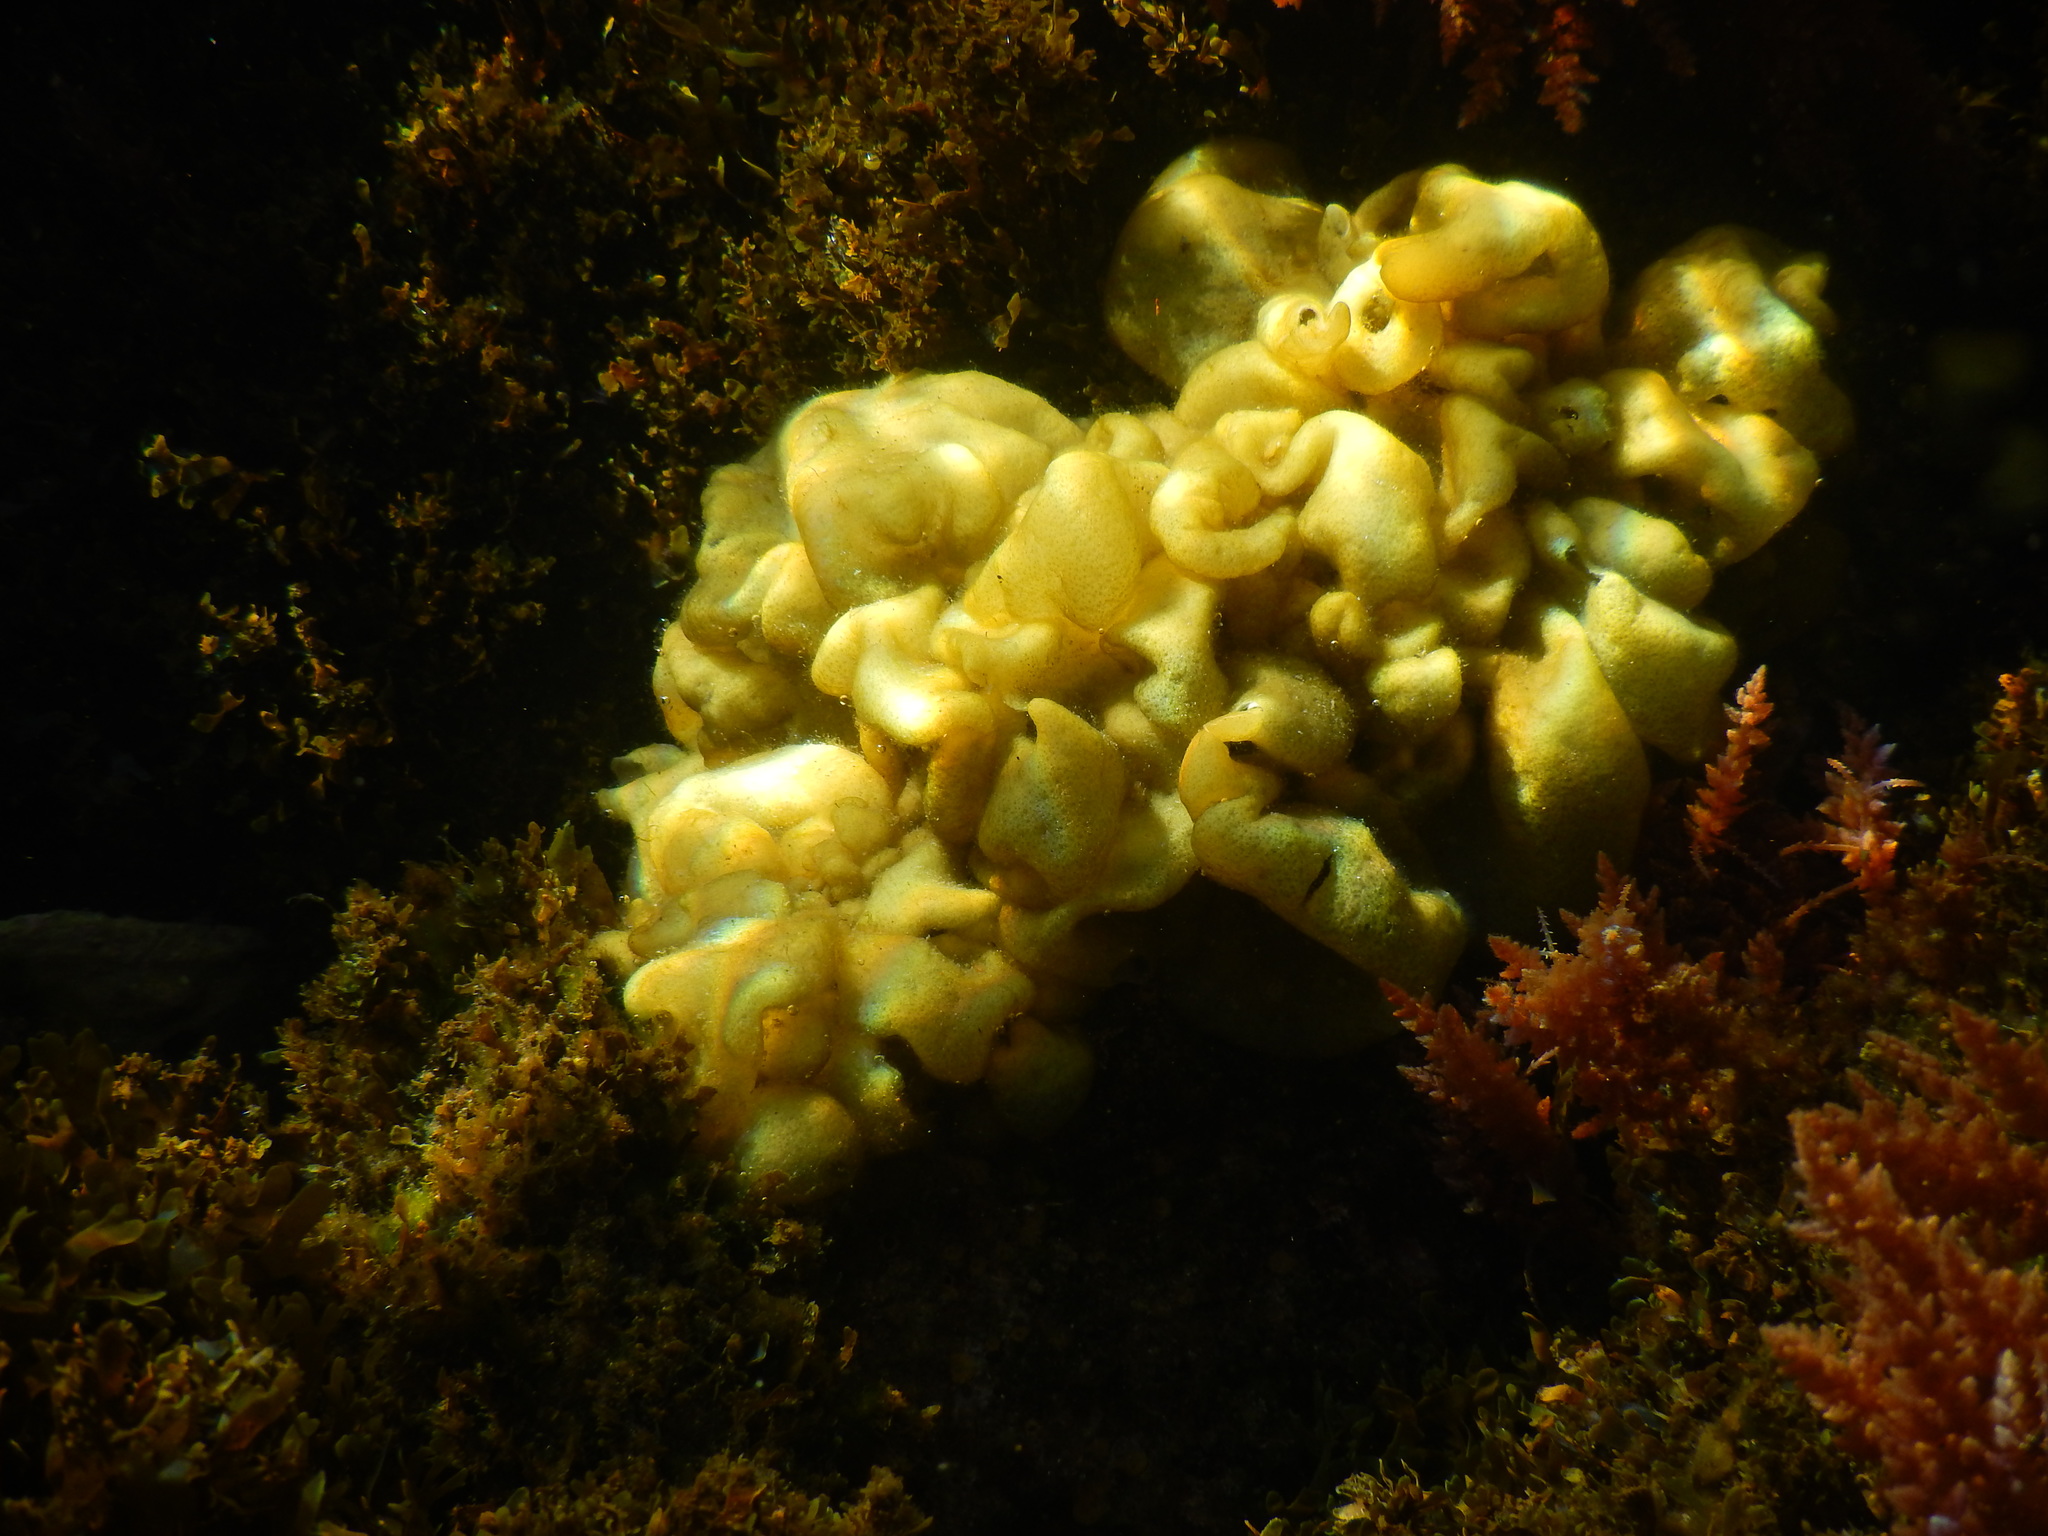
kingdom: Chromista
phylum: Ochrophyta
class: Phaeophyceae
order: Scytosiphonales
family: Scytosiphonaceae
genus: Colpomenia
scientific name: Colpomenia sinuosa
